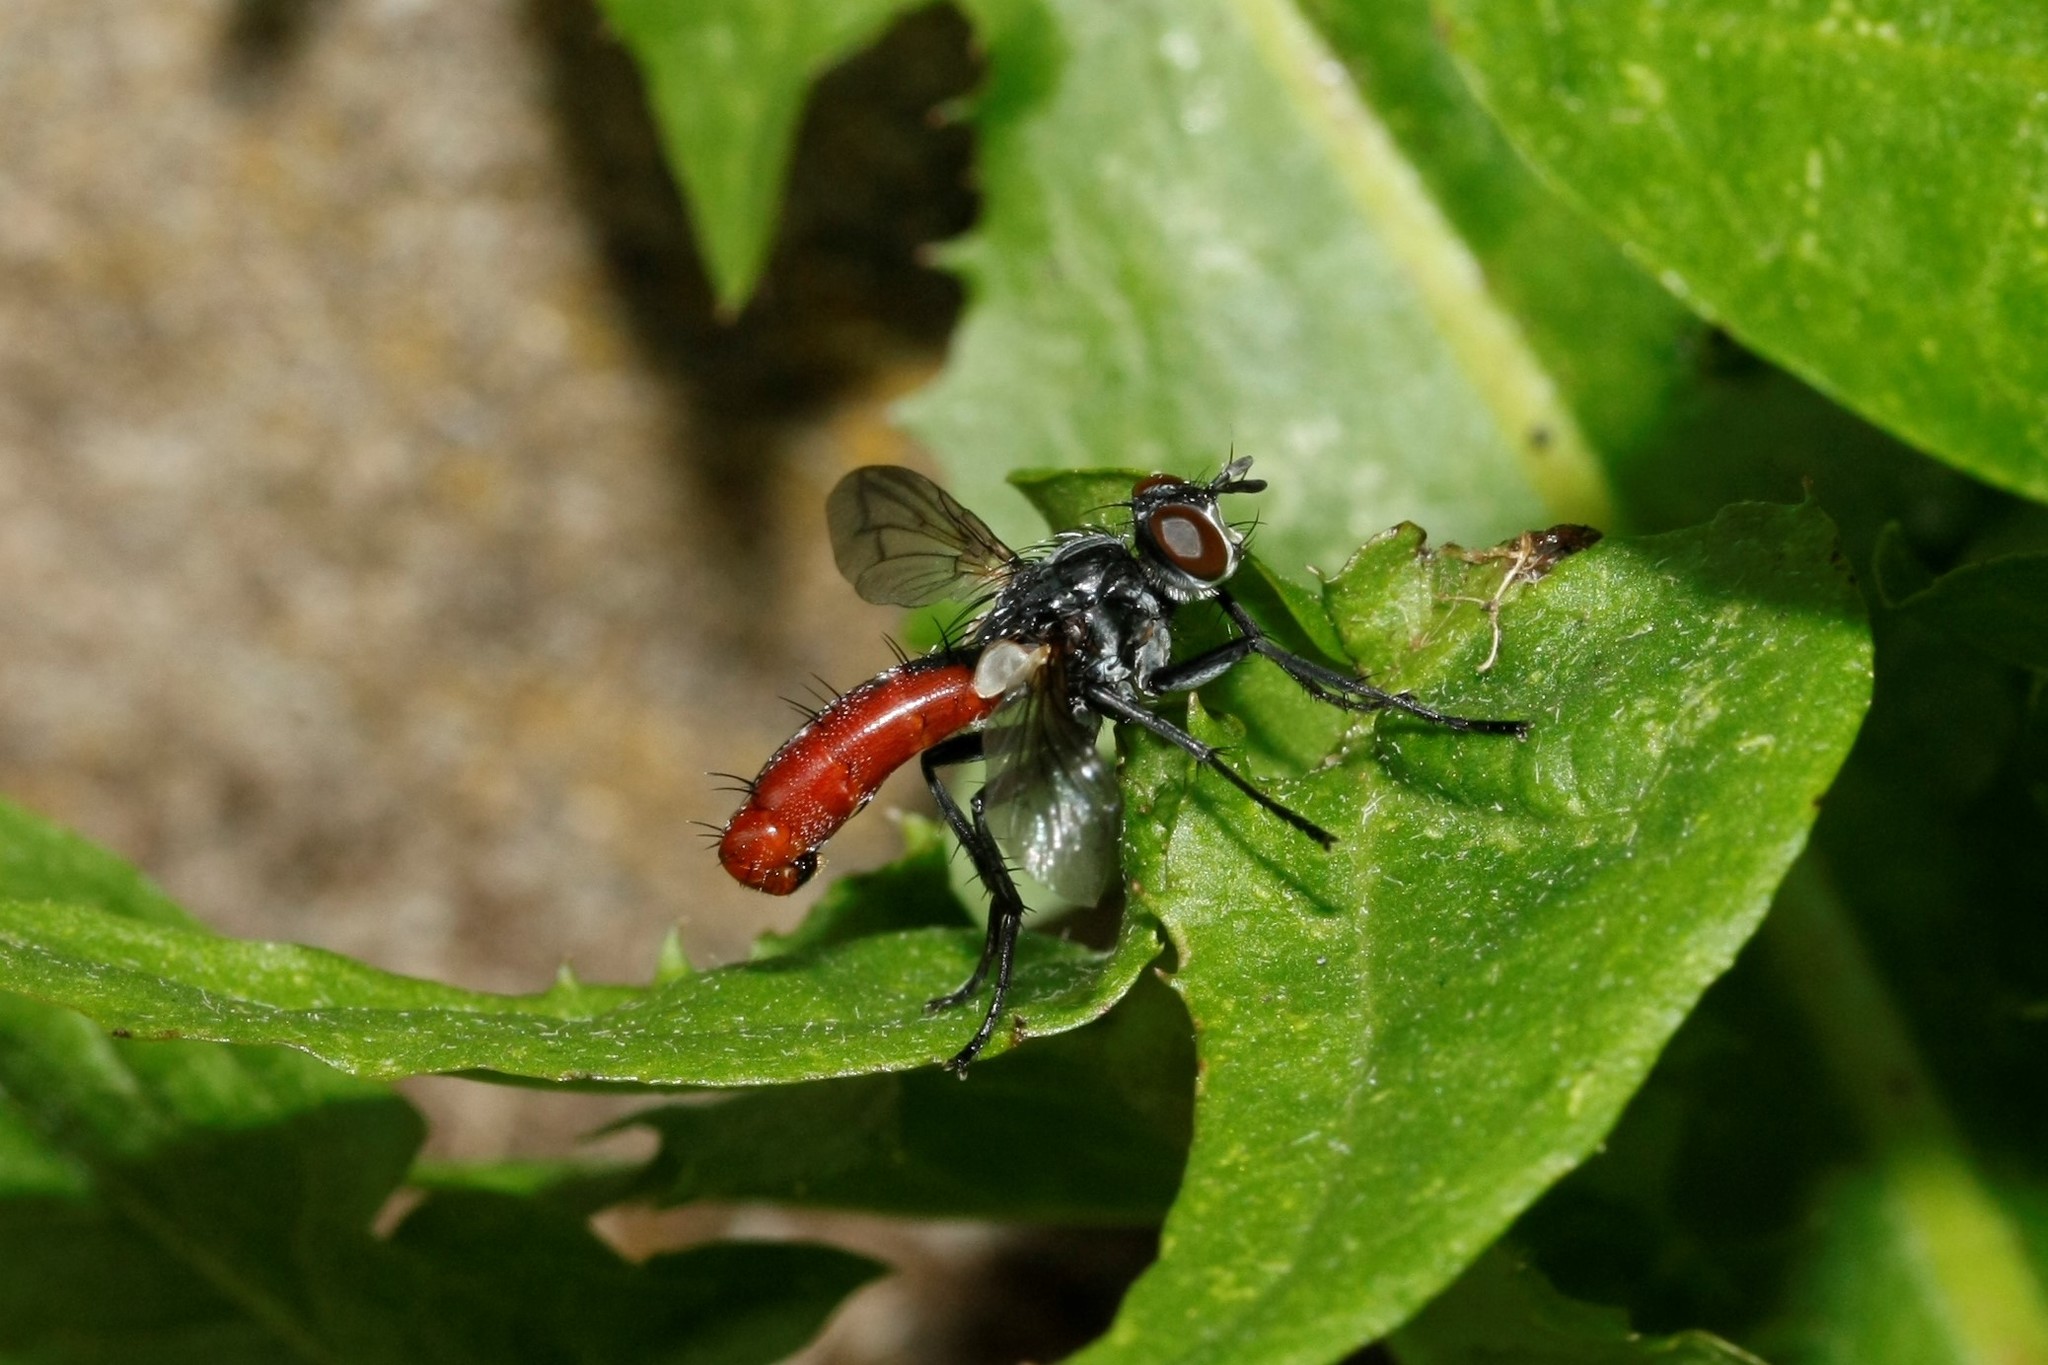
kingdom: Animalia
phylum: Arthropoda
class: Insecta
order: Diptera
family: Tachinidae
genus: Cylindromyia
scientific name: Cylindromyia bicolor
